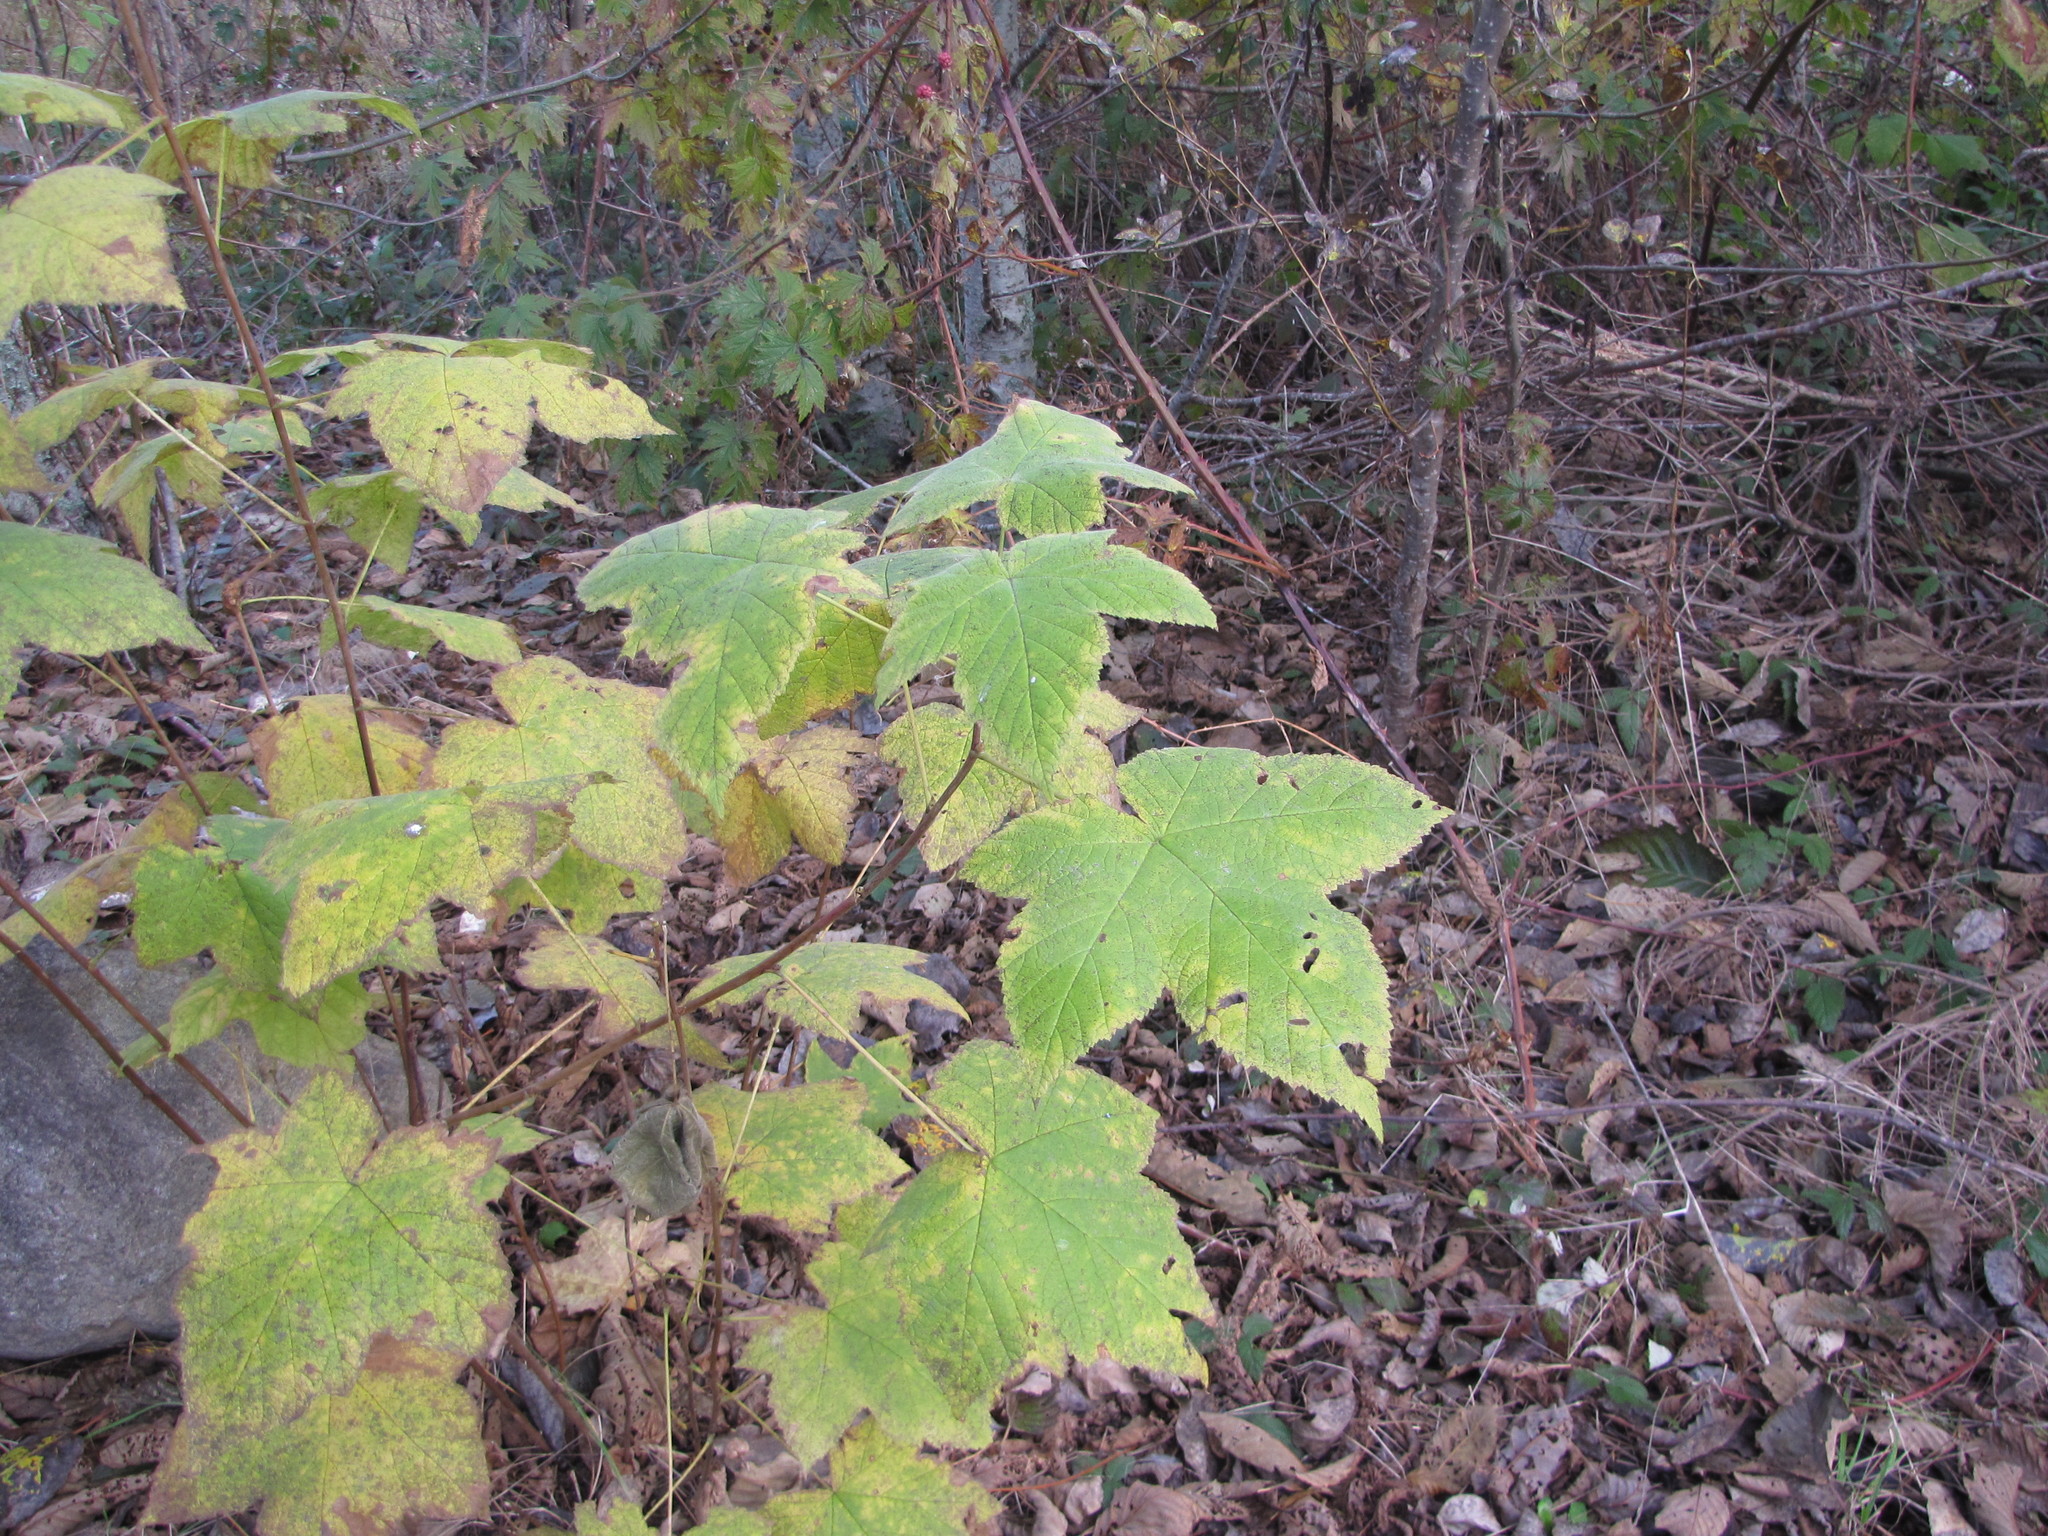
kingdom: Plantae
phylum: Tracheophyta
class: Magnoliopsida
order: Rosales
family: Rosaceae
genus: Rubus
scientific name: Rubus parviflorus
